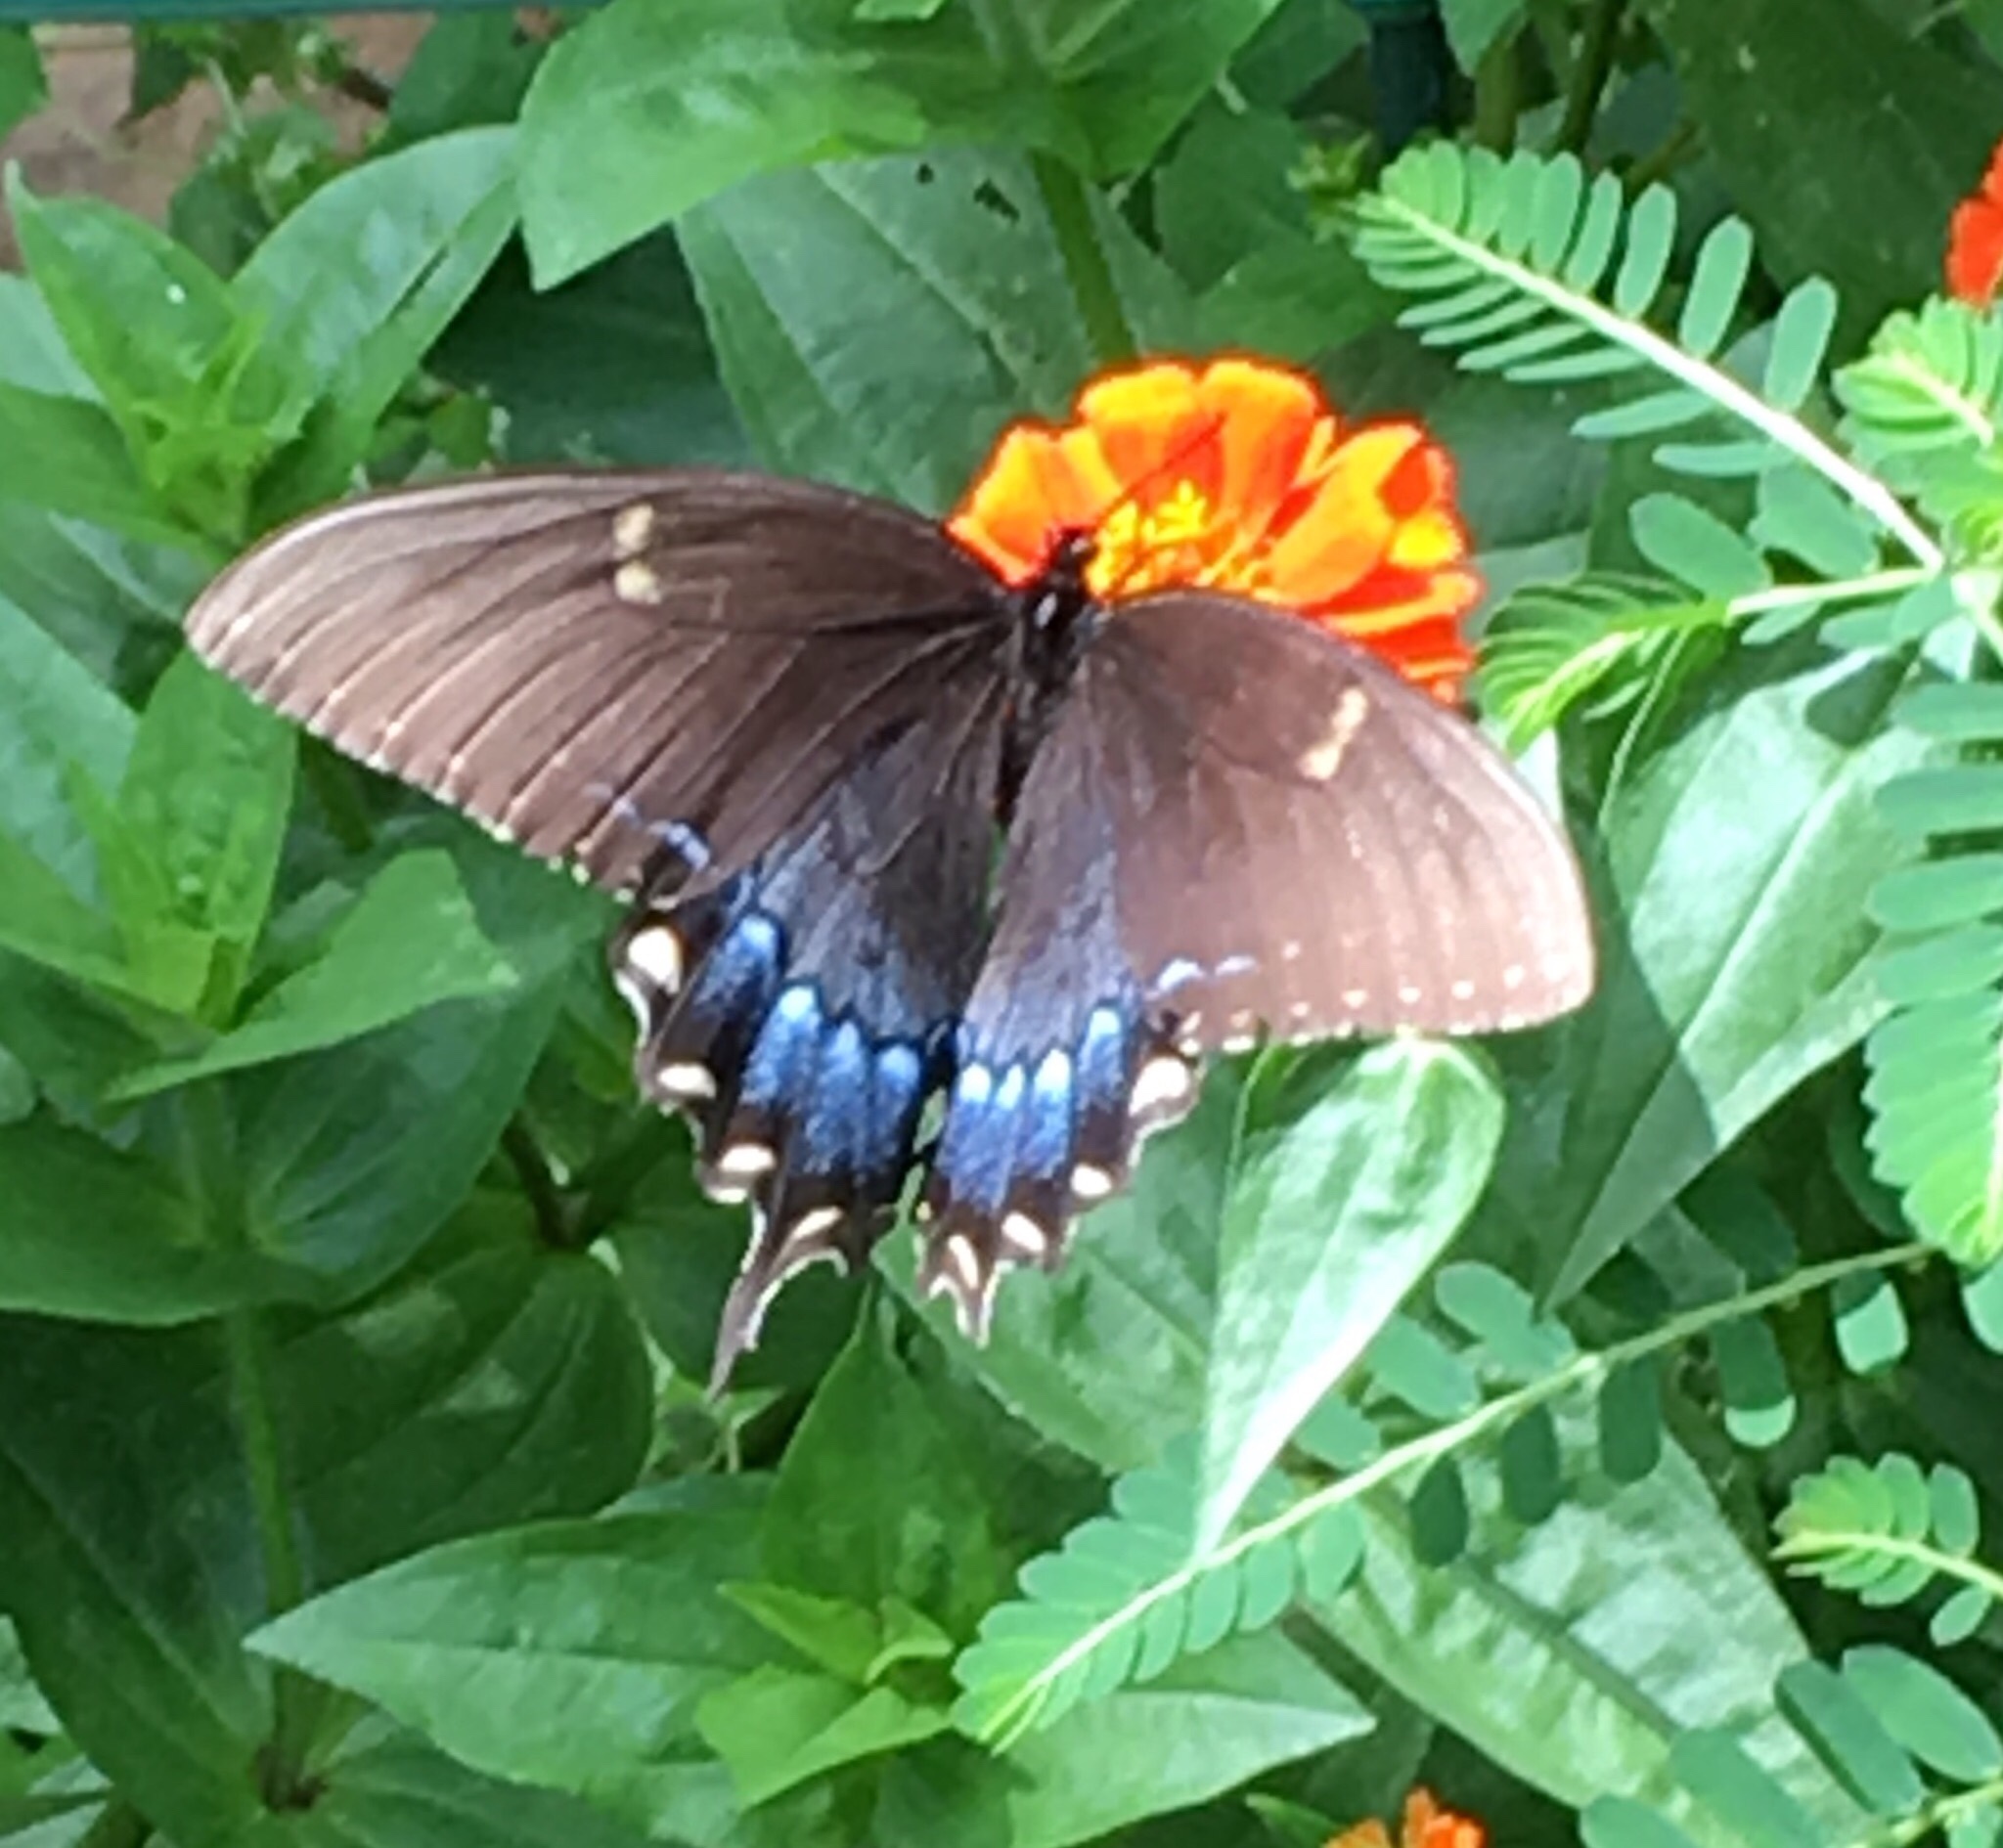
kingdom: Animalia
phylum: Arthropoda
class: Insecta
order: Lepidoptera
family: Papilionidae
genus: Papilio
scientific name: Papilio glaucus
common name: Tiger swallowtail
